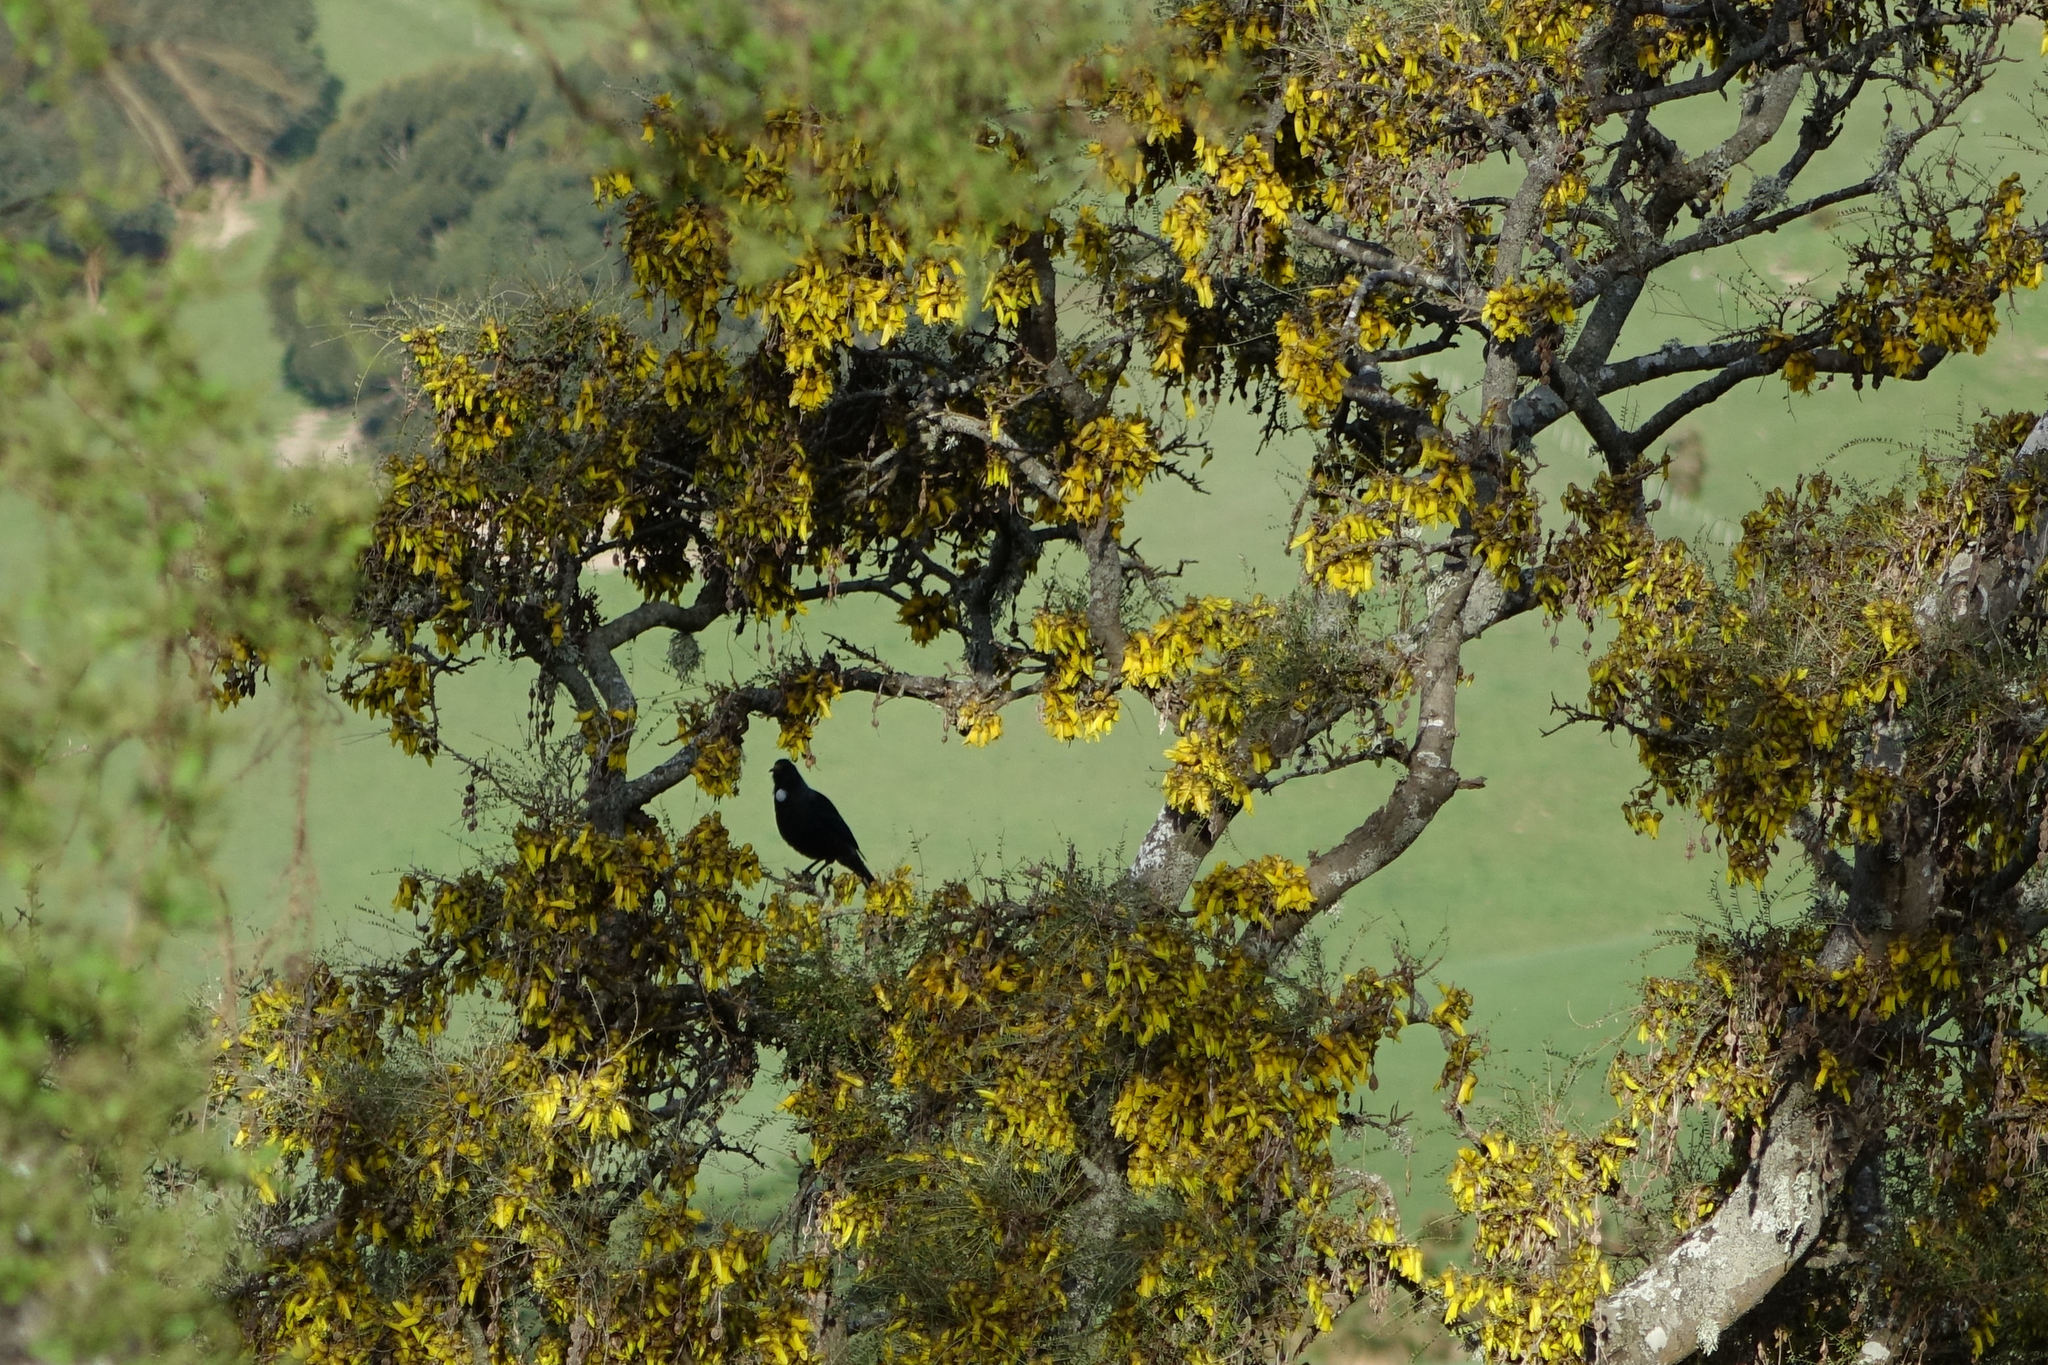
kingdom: Animalia
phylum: Chordata
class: Aves
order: Passeriformes
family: Meliphagidae
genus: Prosthemadera
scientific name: Prosthemadera novaeseelandiae
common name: Tui
